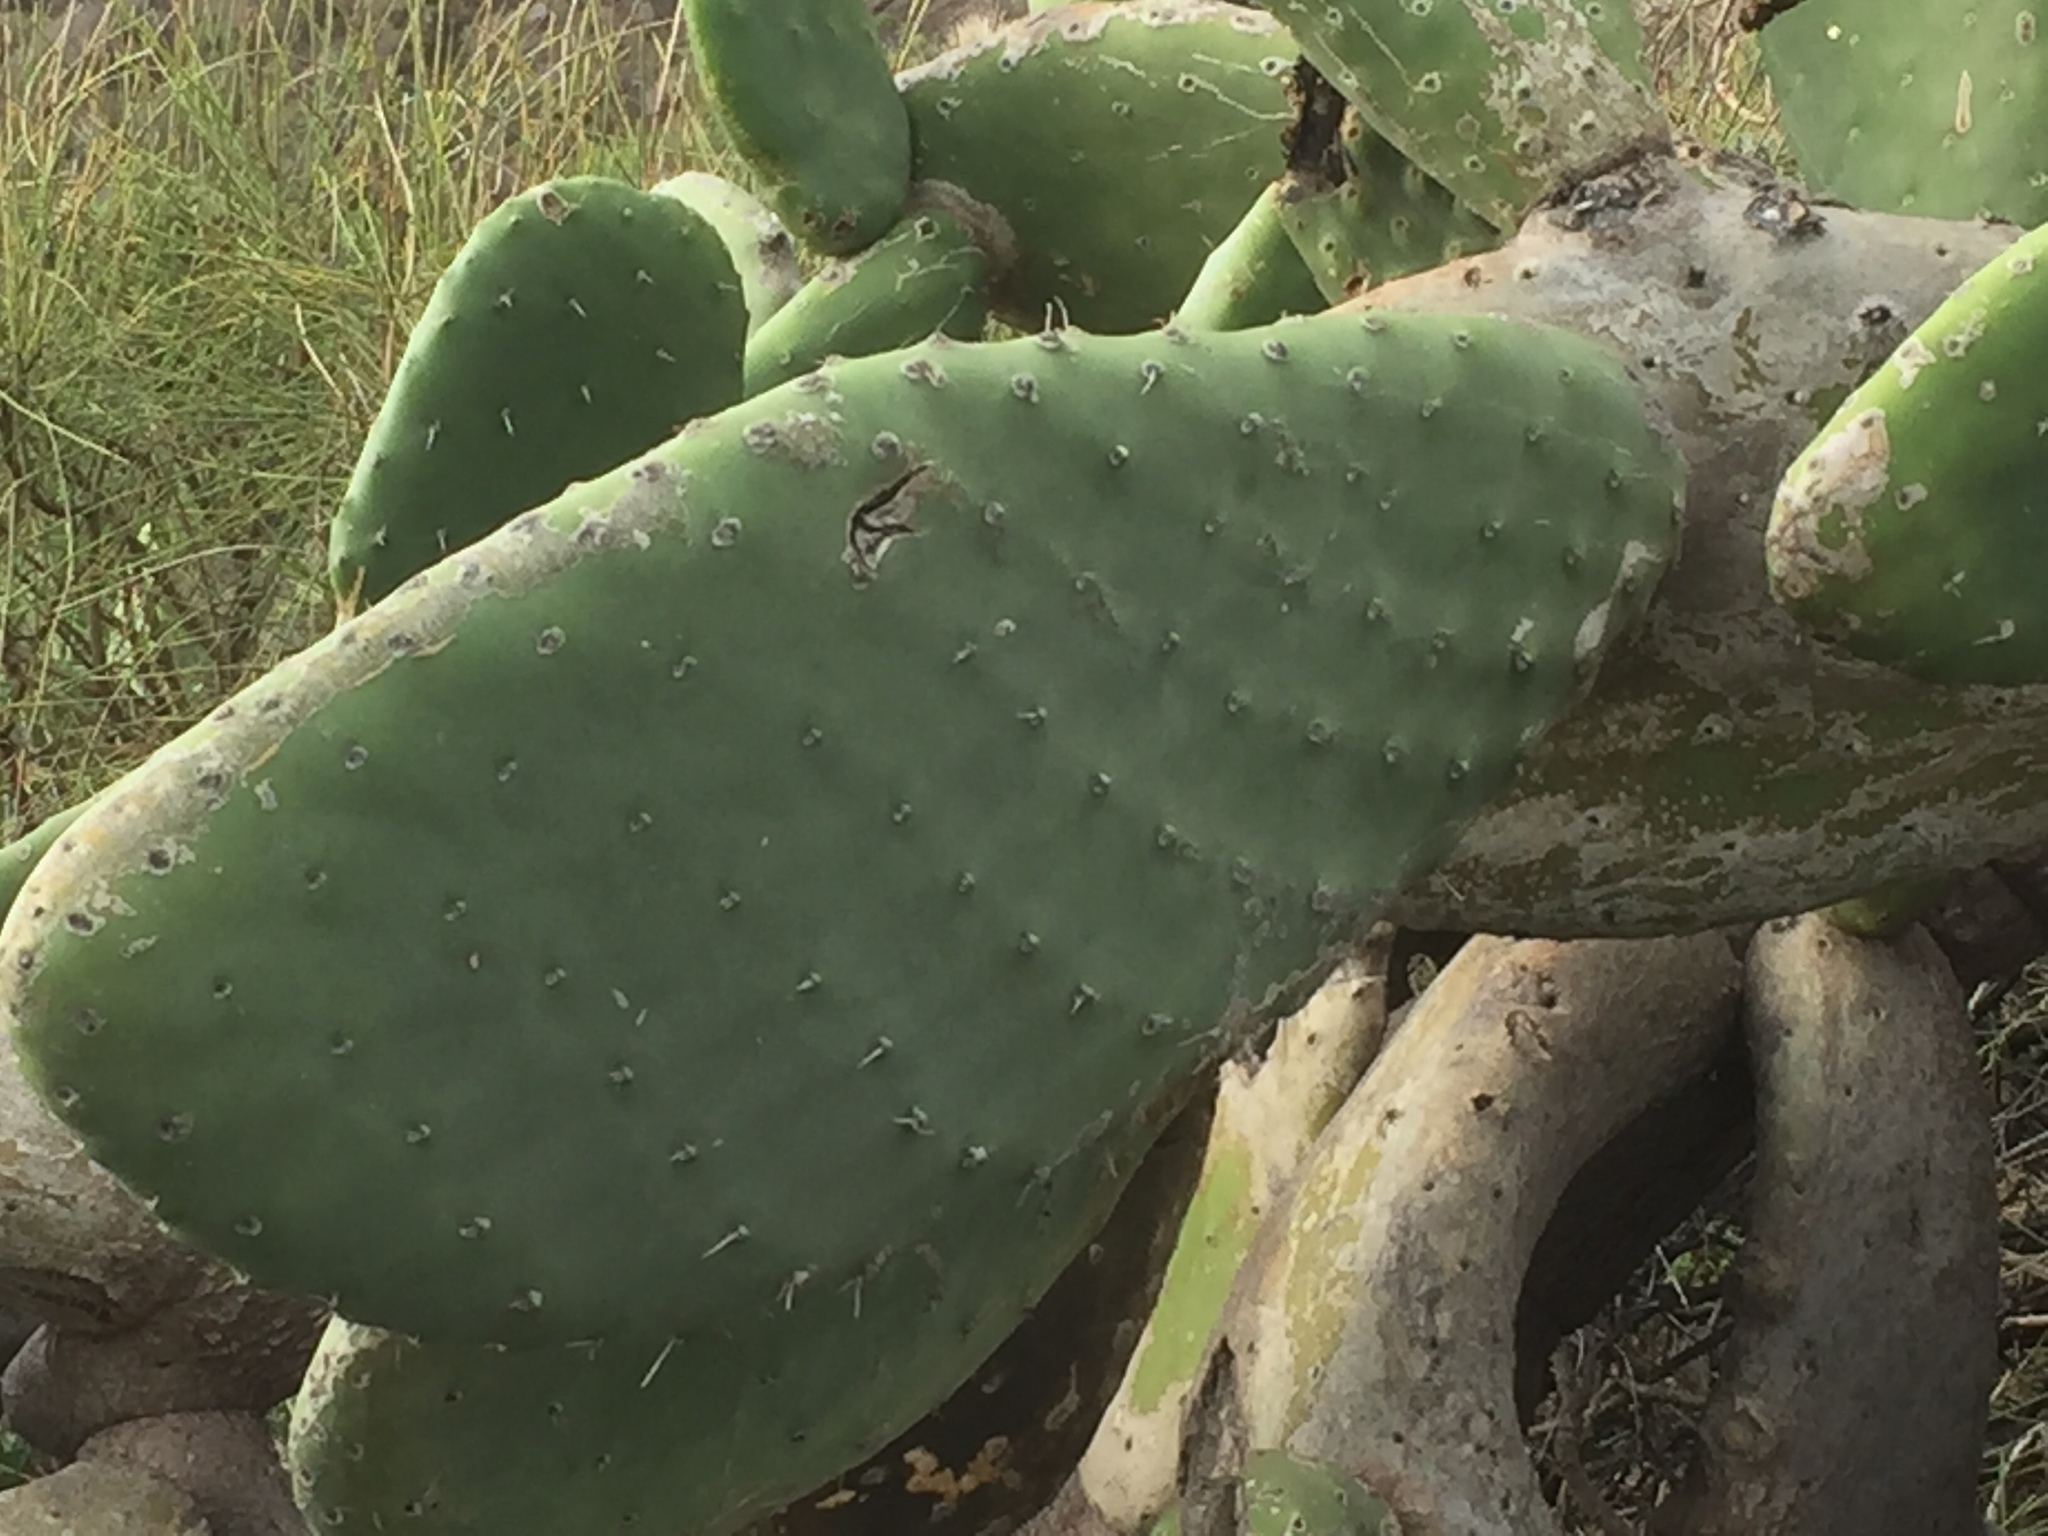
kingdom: Plantae
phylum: Tracheophyta
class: Magnoliopsida
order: Caryophyllales
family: Cactaceae
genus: Opuntia
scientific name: Opuntia ficus-indica
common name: Barbary fig
